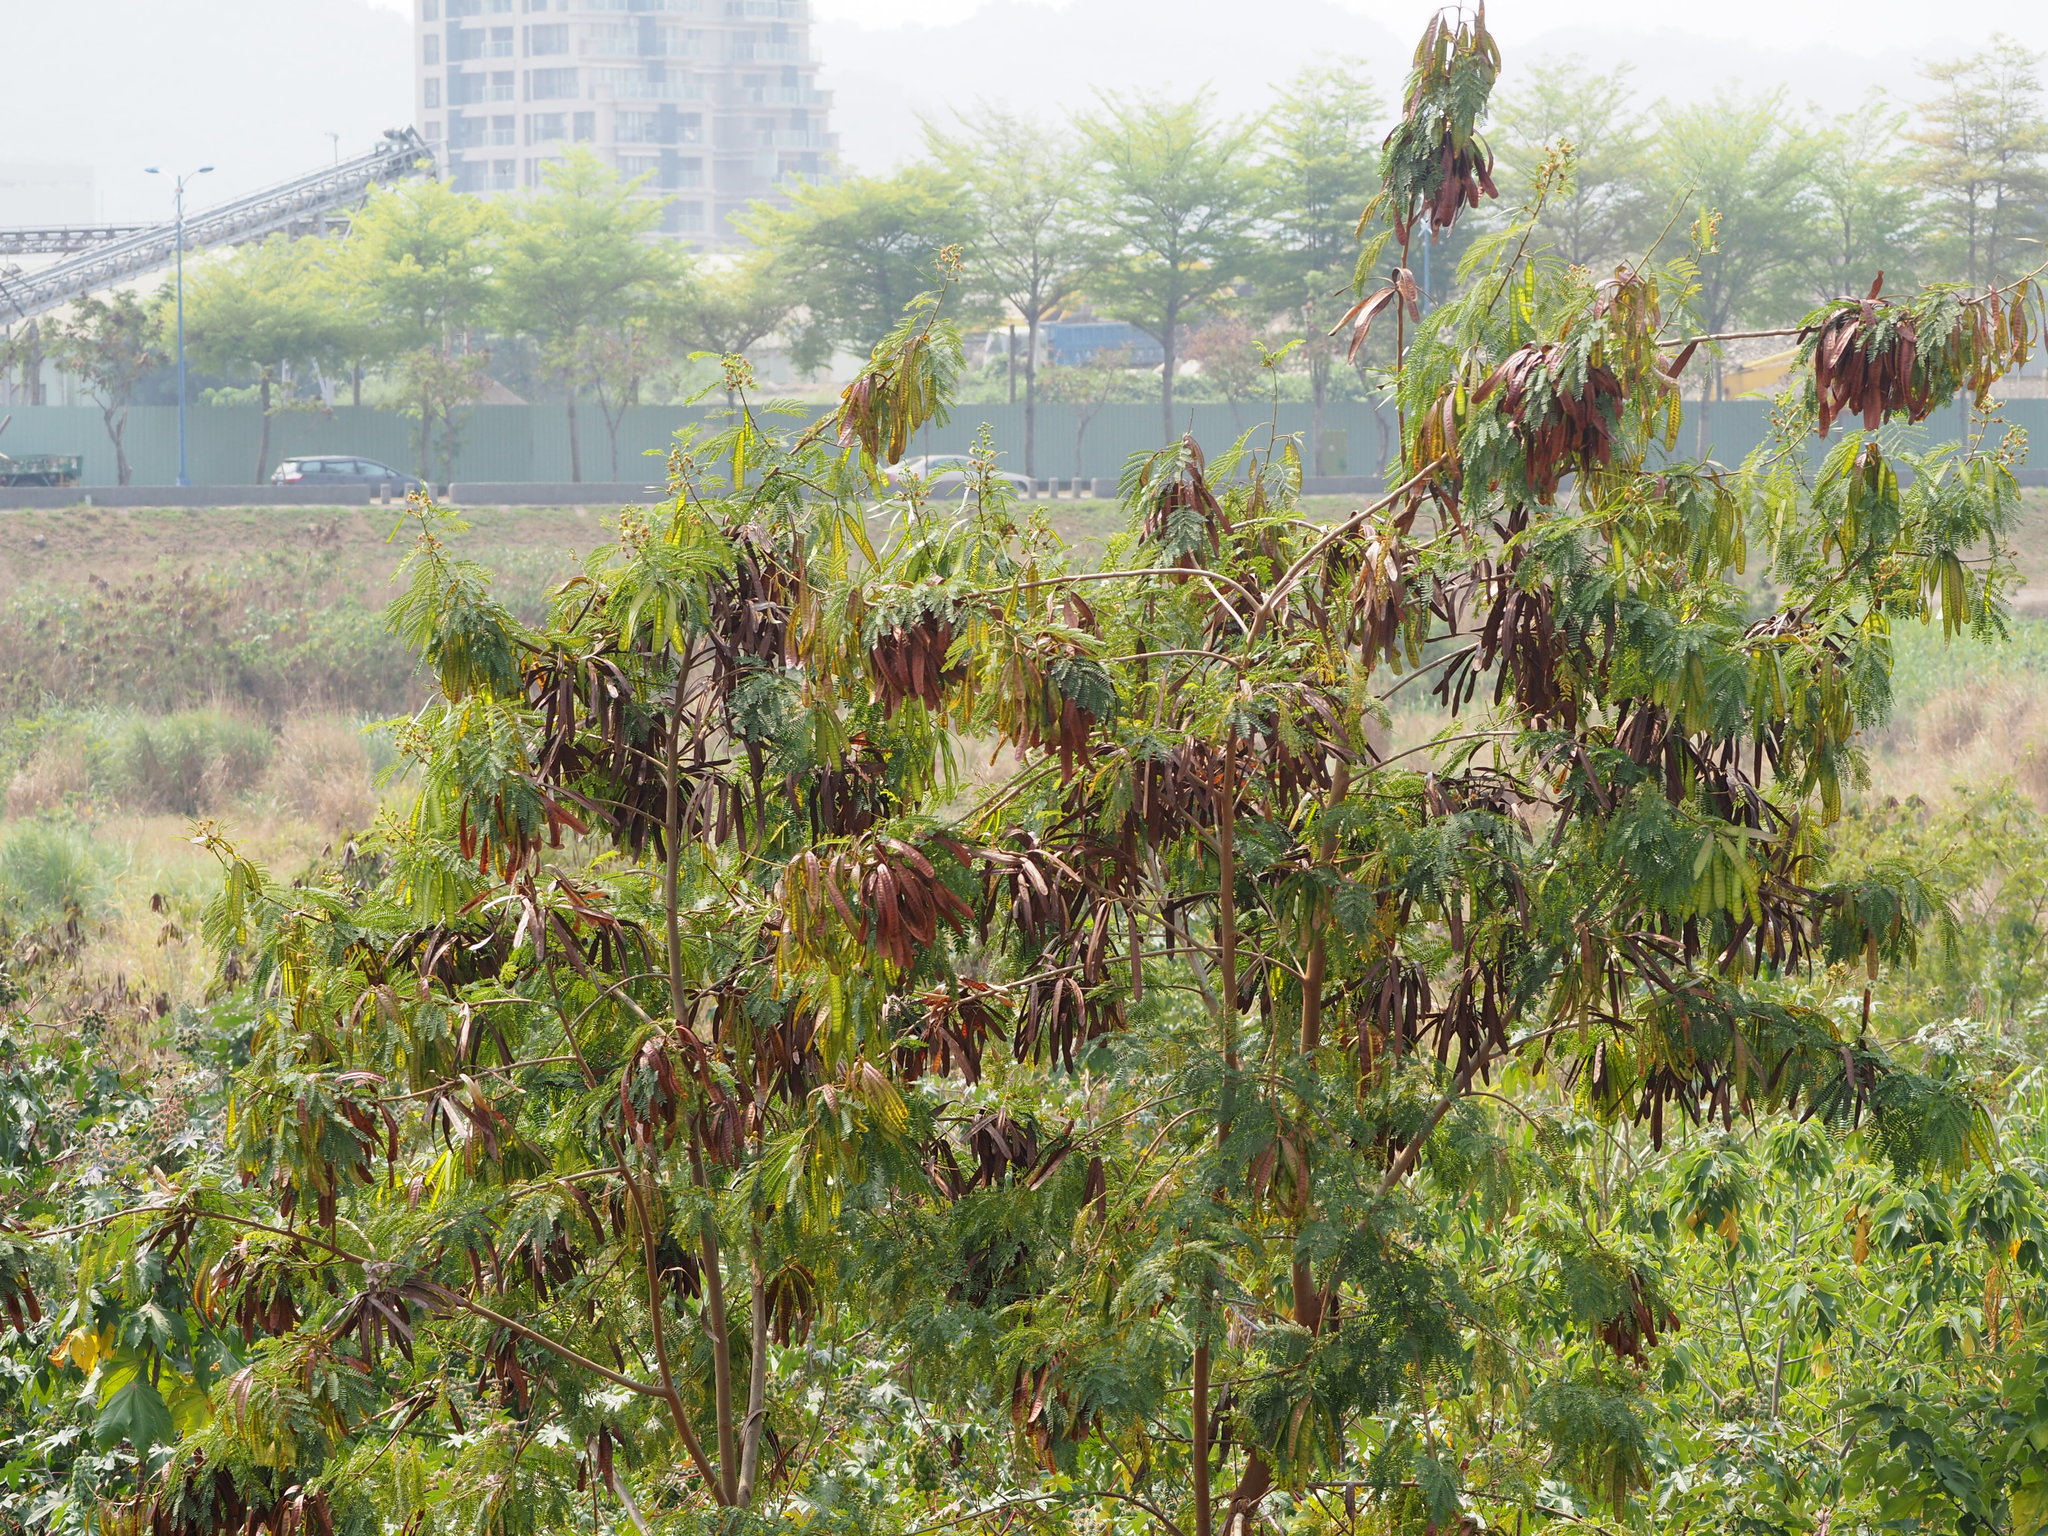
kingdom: Plantae
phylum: Tracheophyta
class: Magnoliopsida
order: Fabales
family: Fabaceae
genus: Leucaena
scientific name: Leucaena leucocephala
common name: White leadtree
